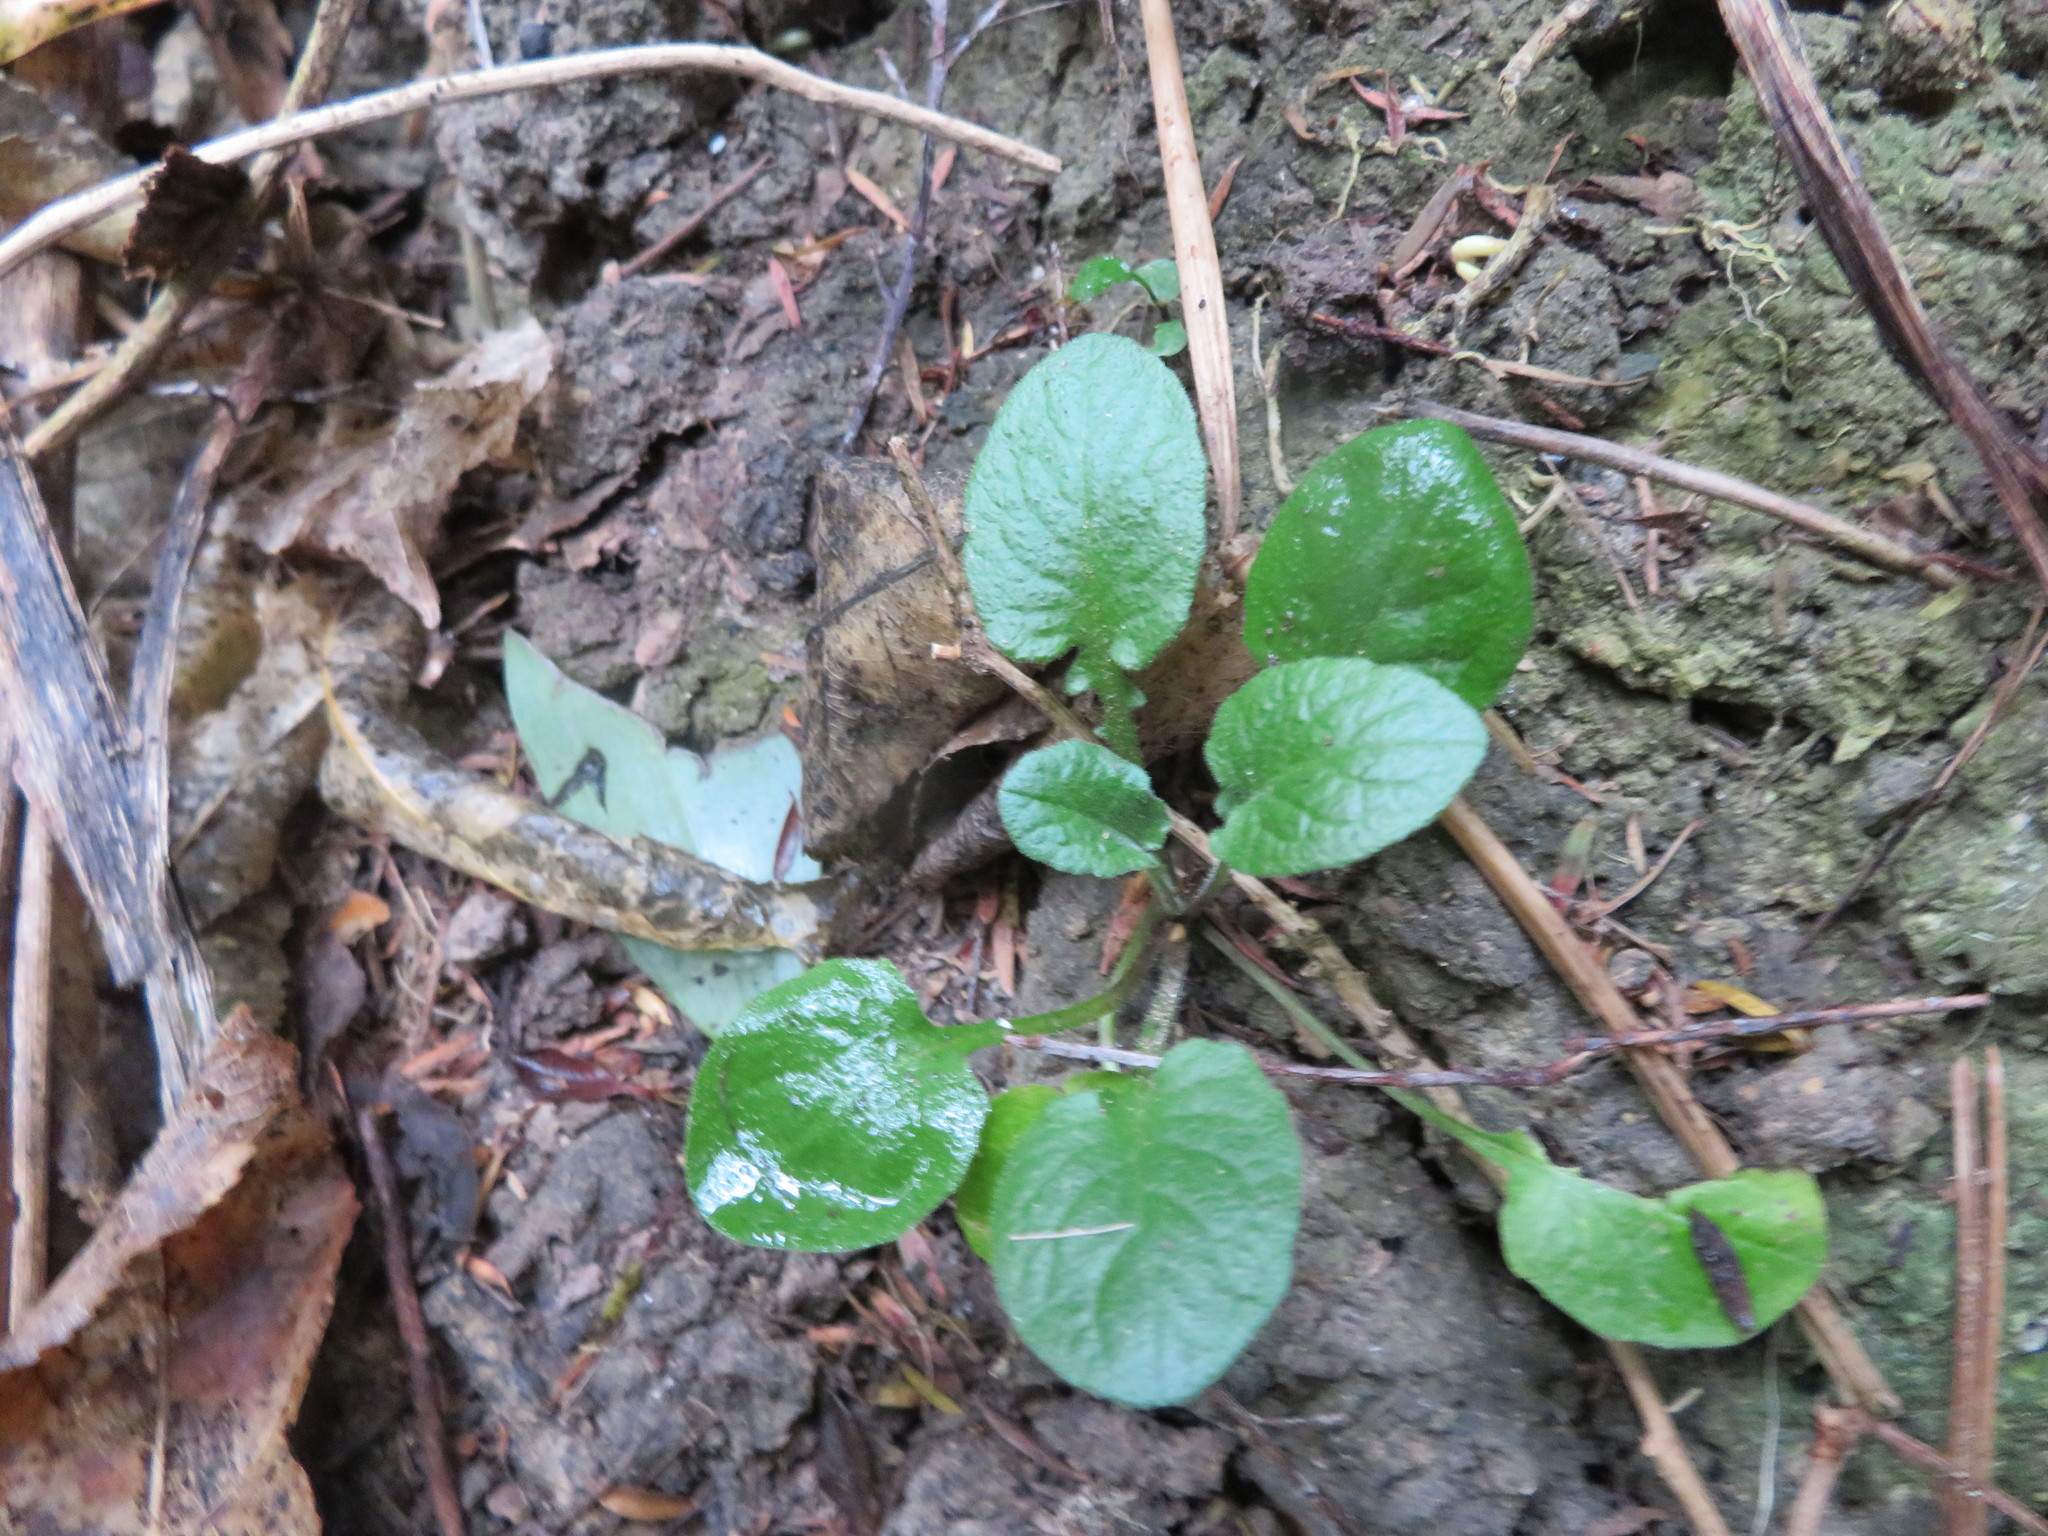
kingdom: Plantae
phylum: Tracheophyta
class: Magnoliopsida
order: Asterales
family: Asteraceae
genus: Lapsana
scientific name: Lapsana communis
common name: Nipplewort
